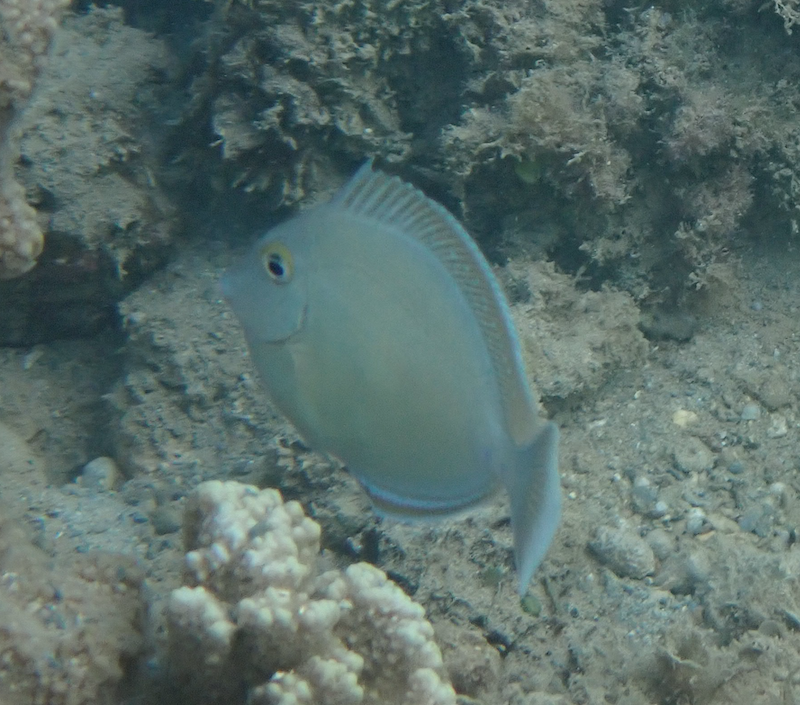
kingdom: Animalia
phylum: Chordata
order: Perciformes
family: Acanthuridae
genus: Naso
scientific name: Naso unicornis
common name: Bluespine unicornfish
